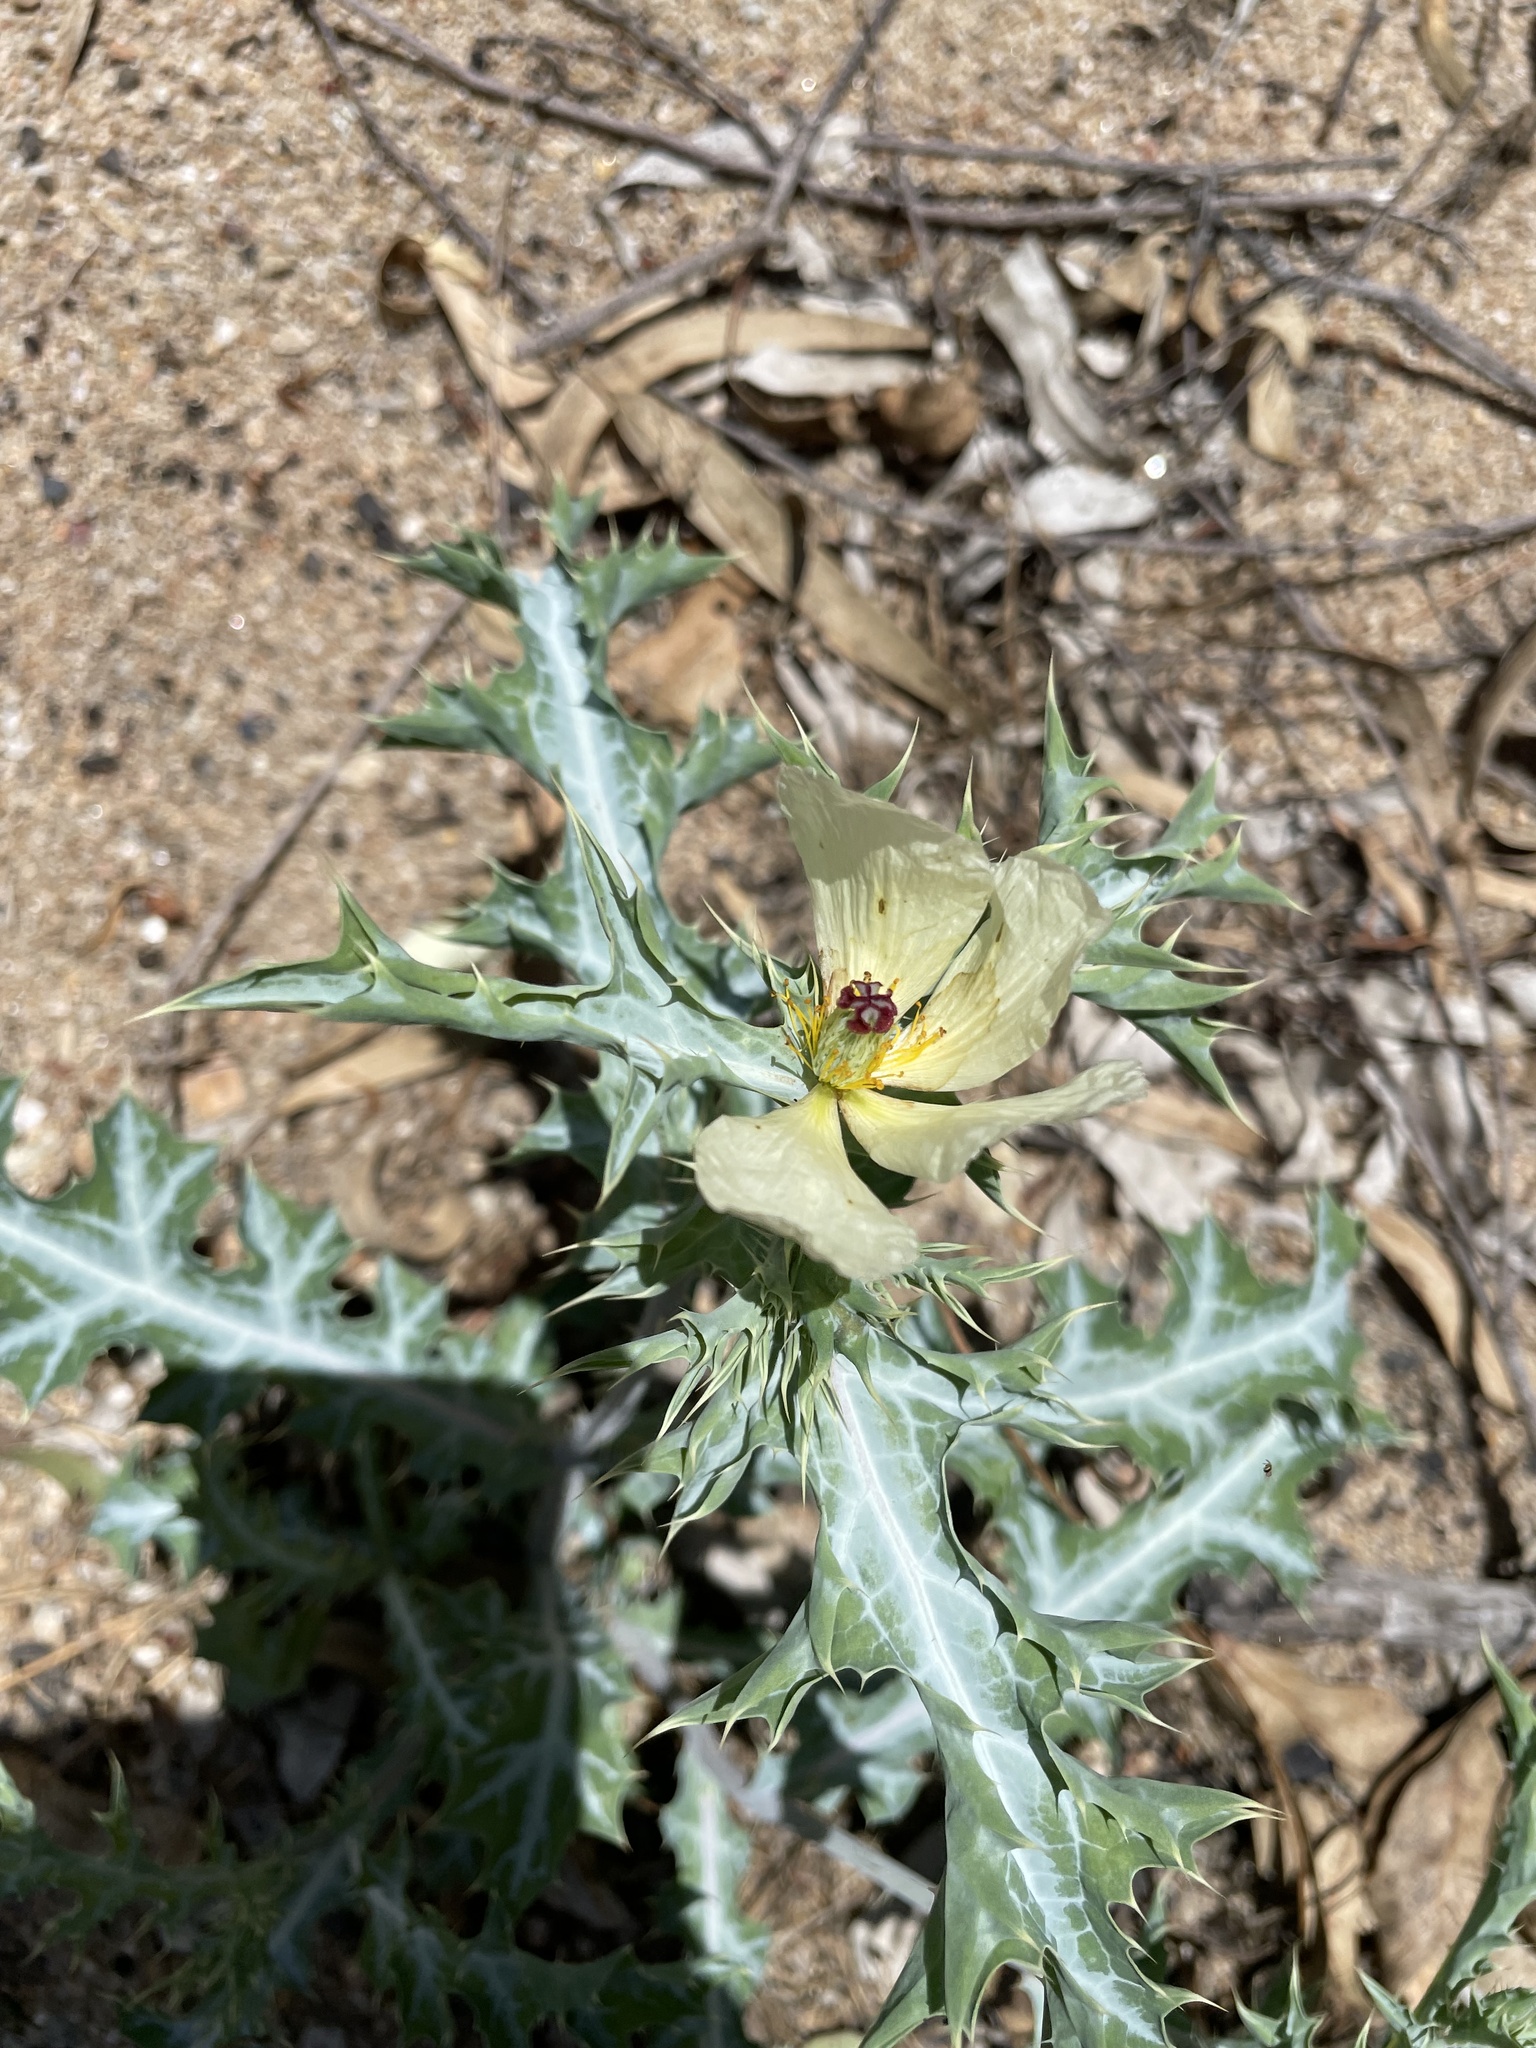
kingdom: Plantae
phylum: Tracheophyta
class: Magnoliopsida
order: Ranunculales
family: Papaveraceae
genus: Argemone
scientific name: Argemone ochroleuca
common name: White-flower mexican-poppy
